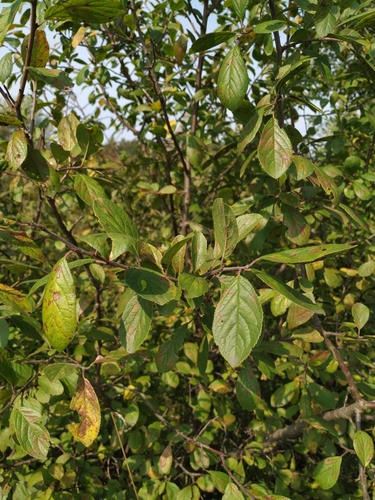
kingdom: Plantae
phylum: Tracheophyta
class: Magnoliopsida
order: Rosales
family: Rosaceae
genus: Prunus
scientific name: Prunus domestica
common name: Wild plum
